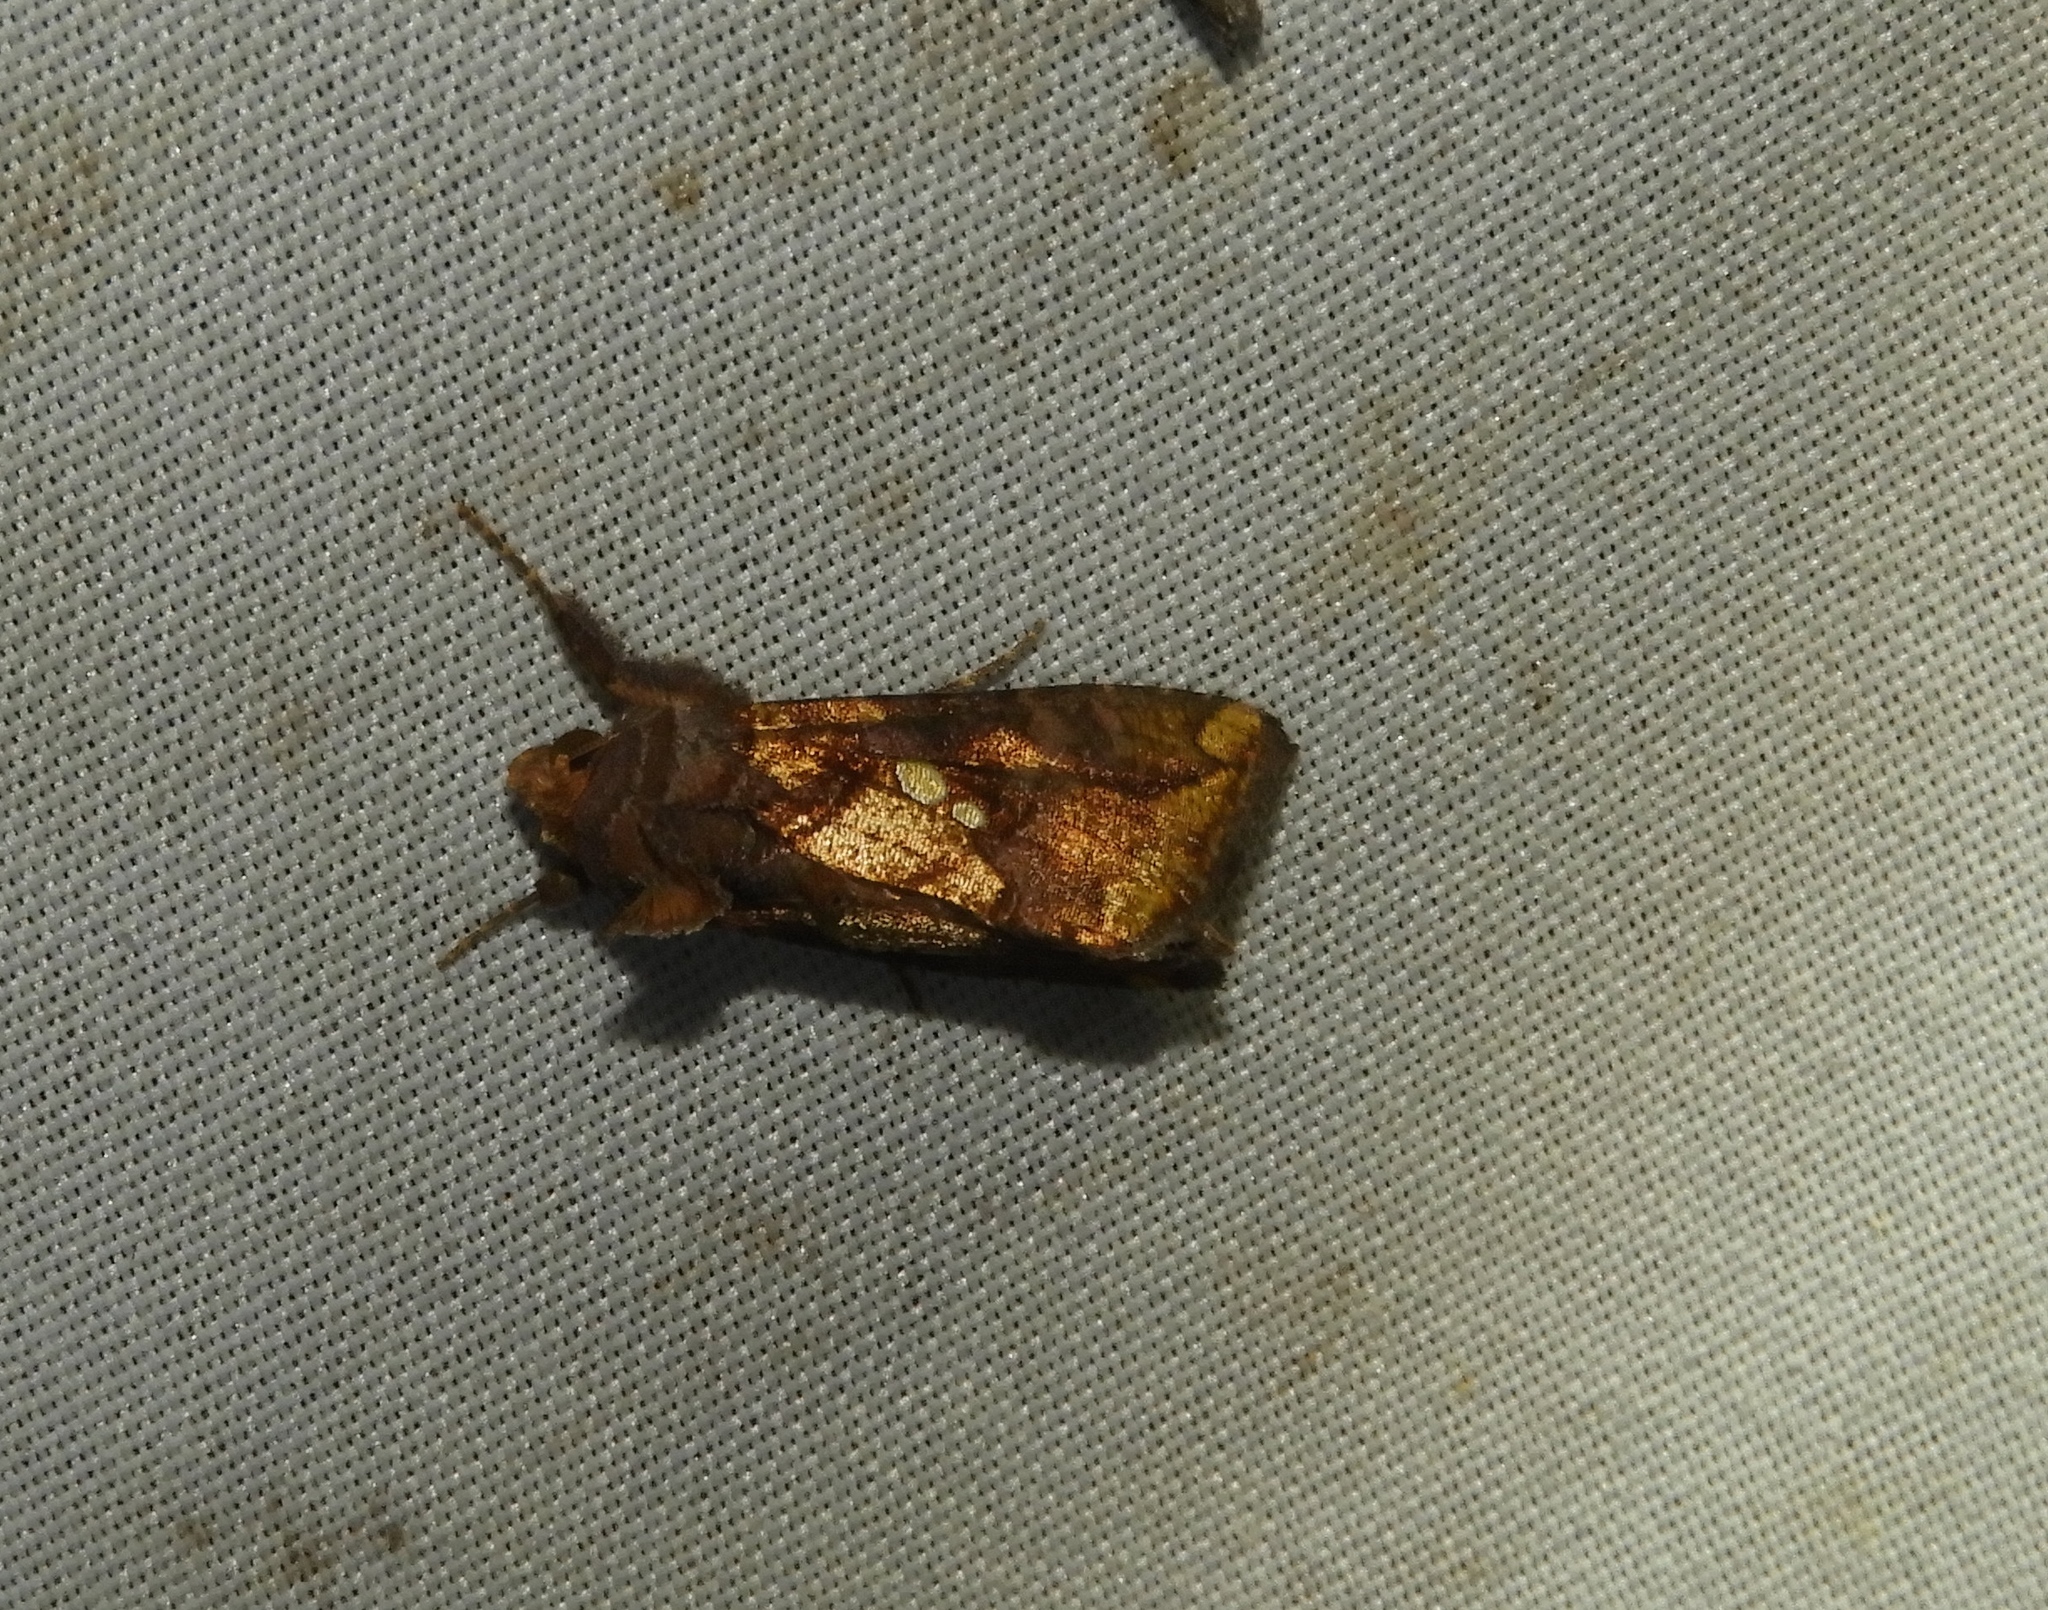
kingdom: Animalia
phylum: Arthropoda
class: Insecta
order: Lepidoptera
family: Noctuidae
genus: Argyrogramma
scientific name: Argyrogramma verruca
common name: Golden looper moth
